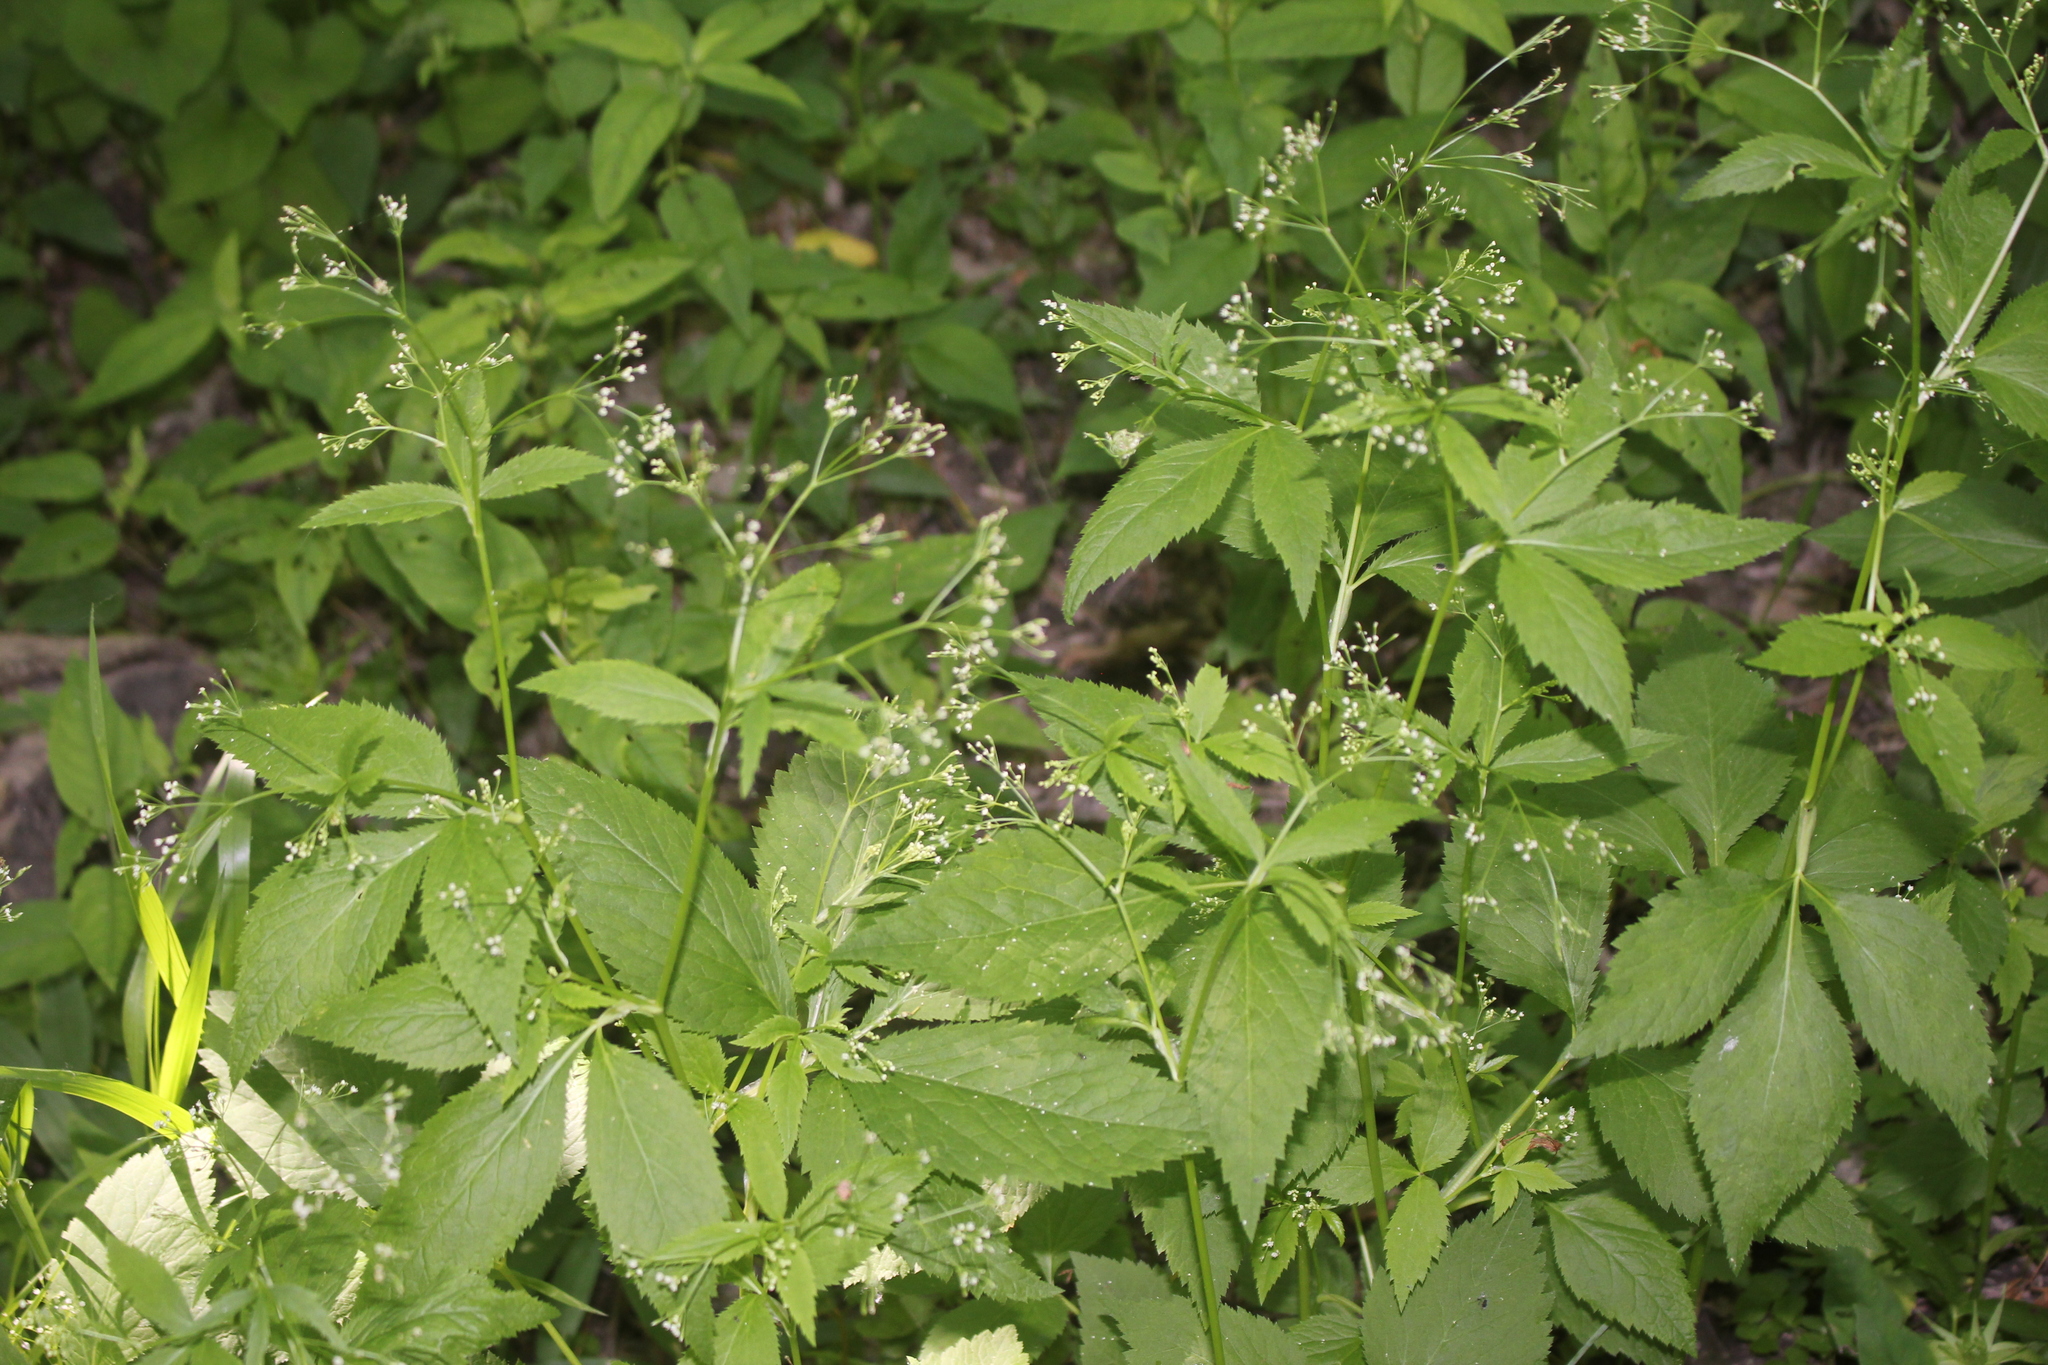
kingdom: Plantae
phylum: Tracheophyta
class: Magnoliopsida
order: Apiales
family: Apiaceae
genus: Cryptotaenia
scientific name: Cryptotaenia canadensis
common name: Honewort
